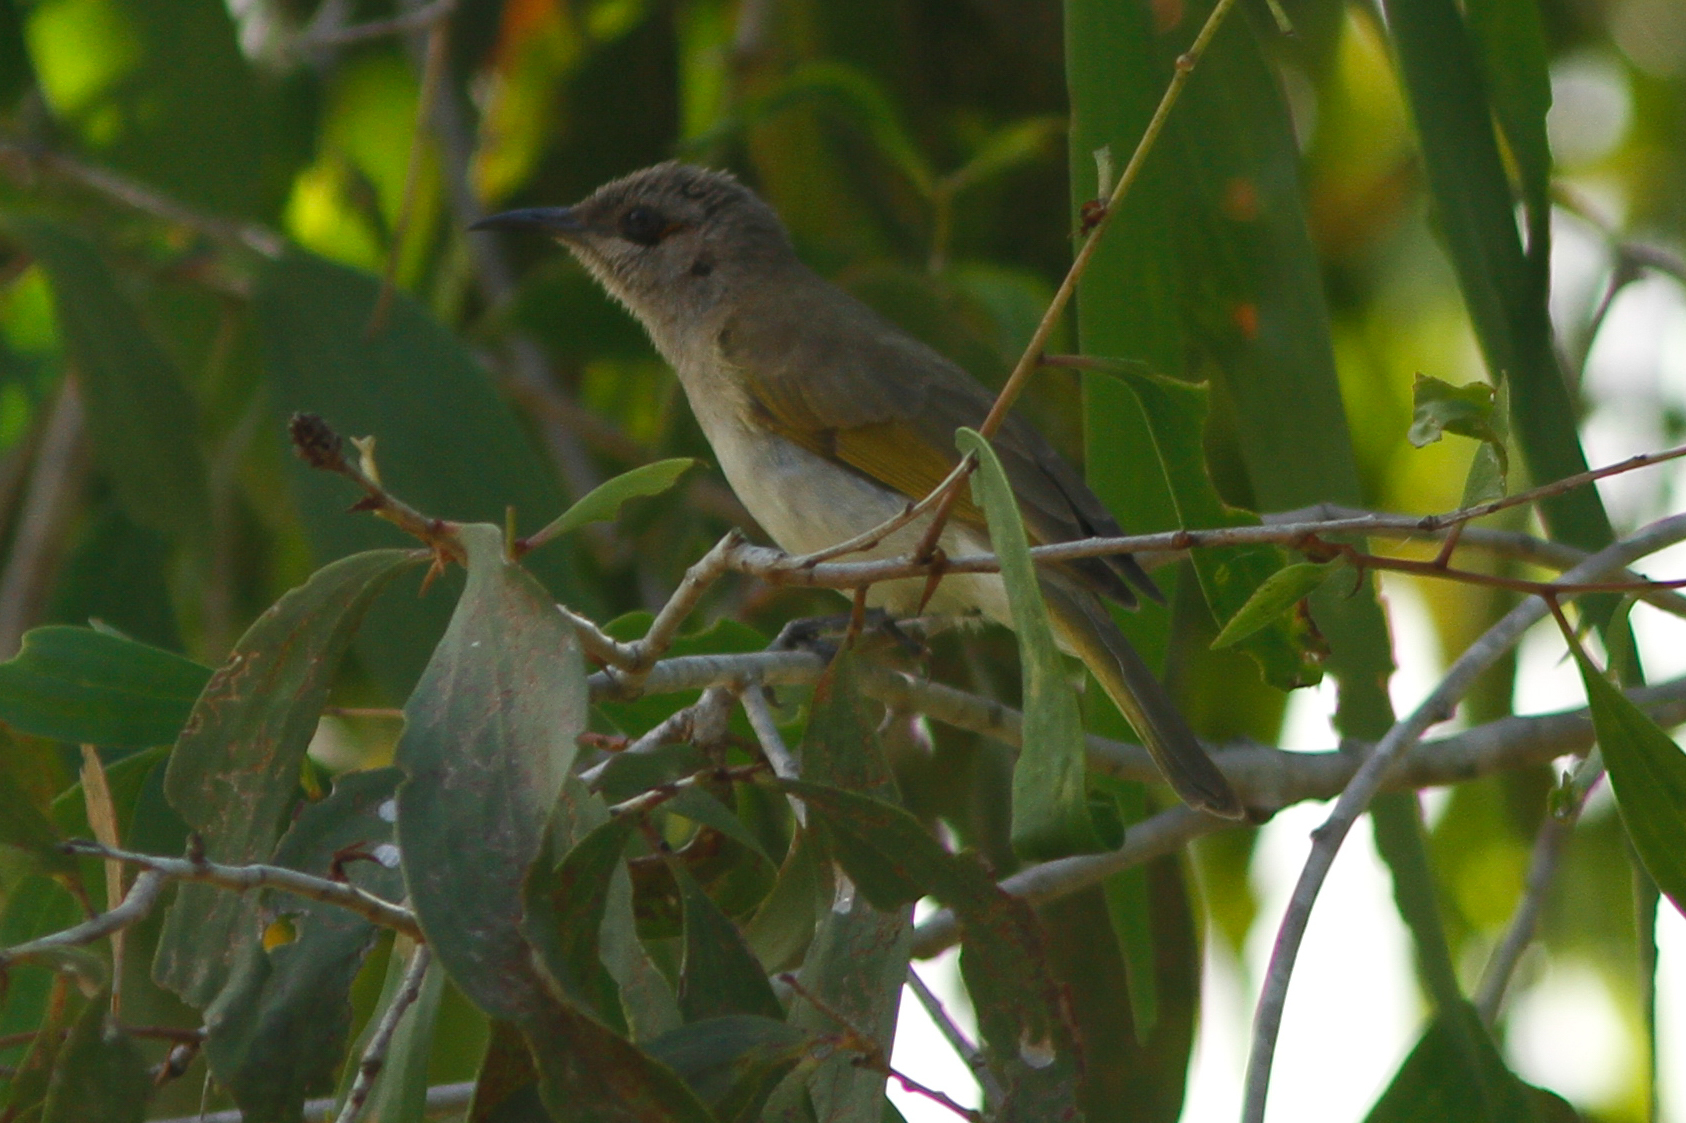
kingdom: Animalia
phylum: Chordata
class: Aves
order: Passeriformes
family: Meliphagidae
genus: Lichmera
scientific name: Lichmera indistincta
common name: Brown honeyeater
